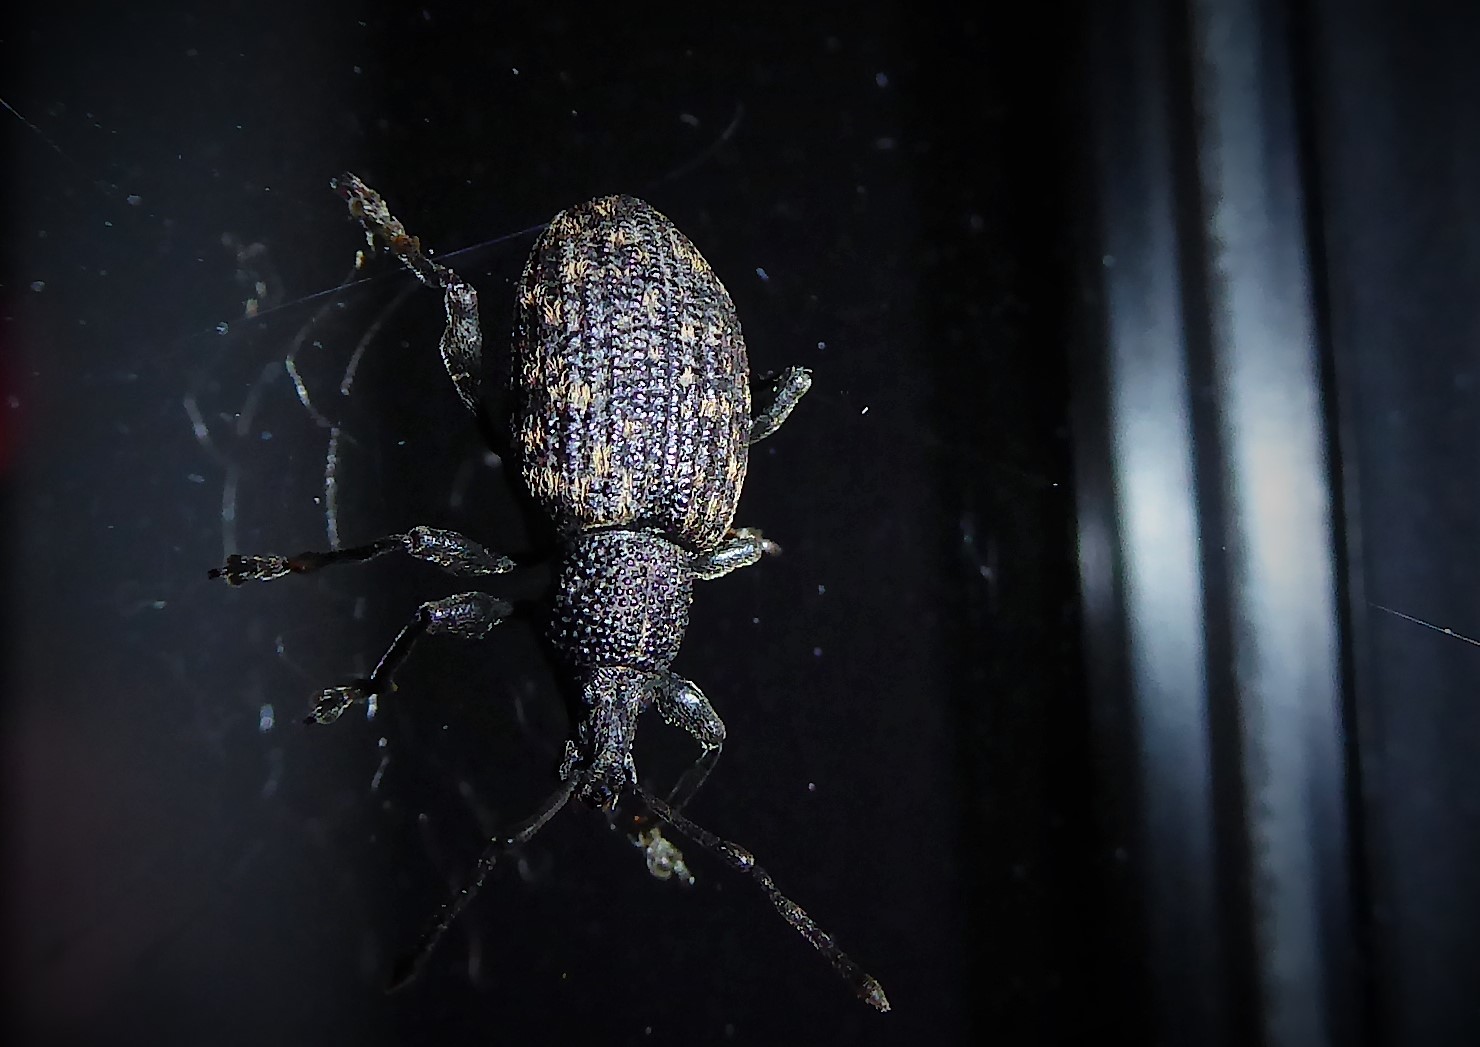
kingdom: Animalia
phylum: Arthropoda
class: Insecta
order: Coleoptera
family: Curculionidae
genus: Otiorhynchus
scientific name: Otiorhynchus sulcatus
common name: Black vine weevil
